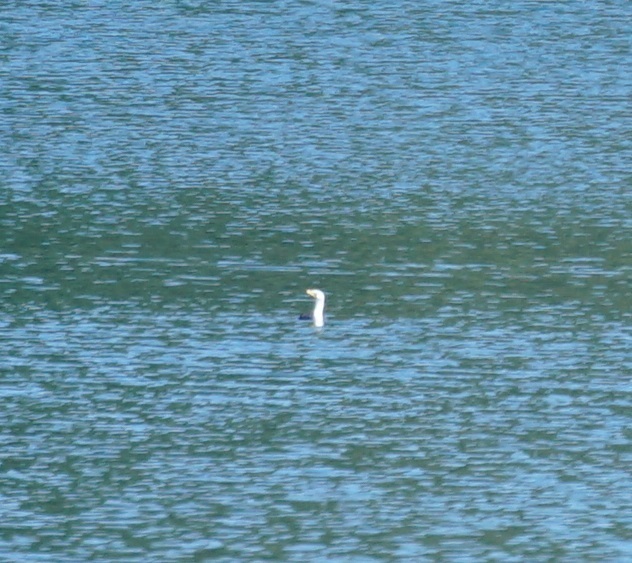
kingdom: Animalia
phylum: Chordata
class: Aves
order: Suliformes
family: Phalacrocoracidae
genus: Microcarbo
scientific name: Microcarbo melanoleucos
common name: Little pied cormorant
